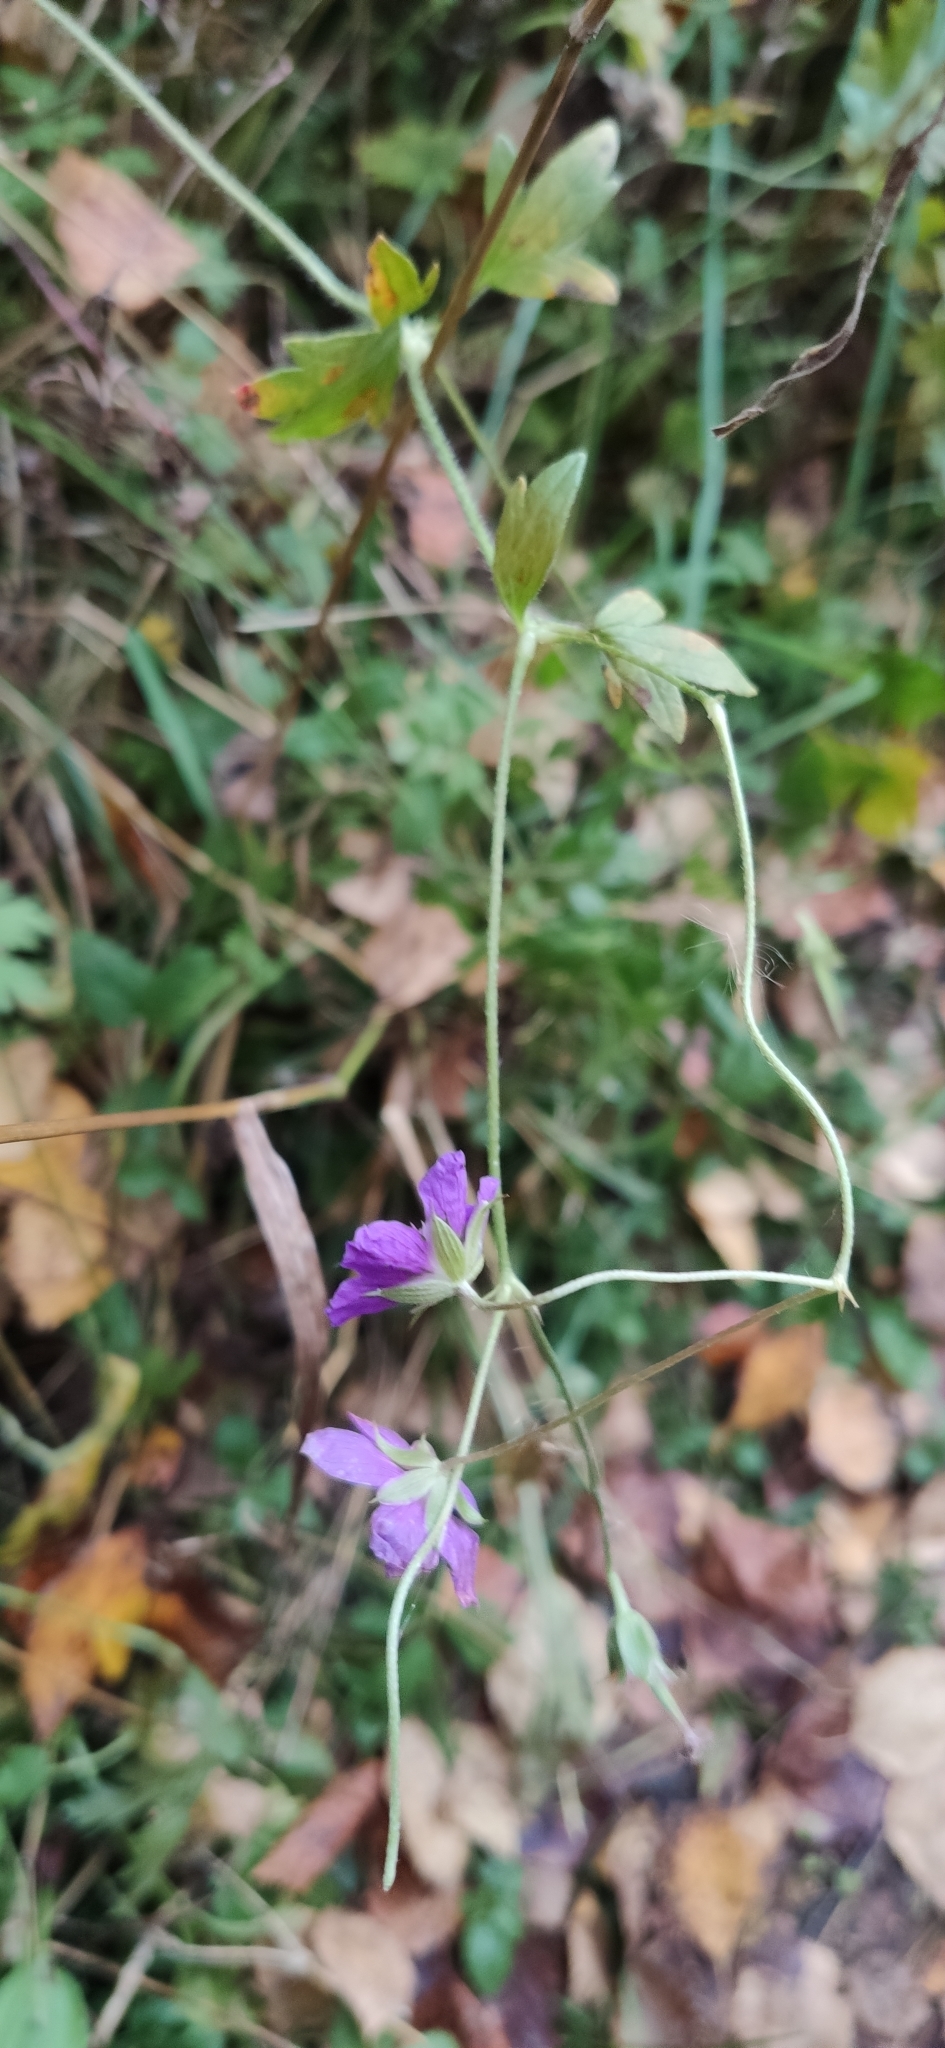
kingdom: Plantae
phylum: Tracheophyta
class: Magnoliopsida
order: Geraniales
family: Geraniaceae
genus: Geranium
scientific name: Geranium palustre
